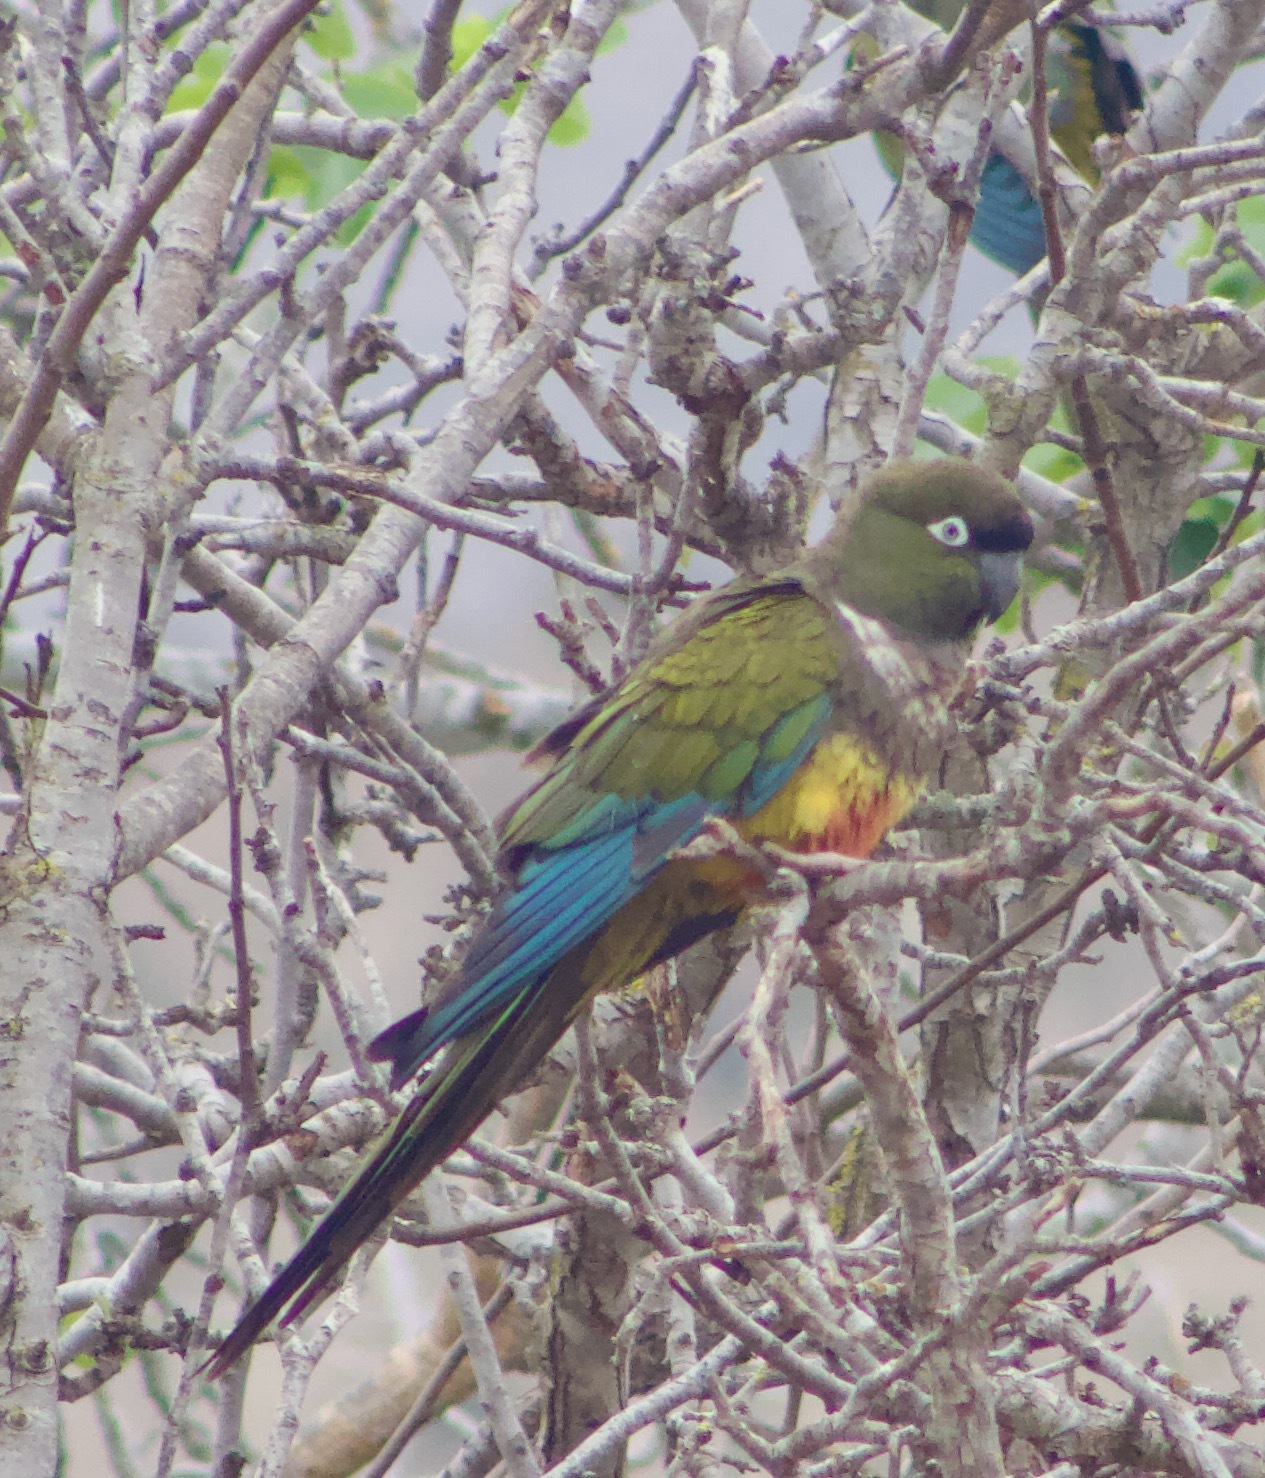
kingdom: Animalia
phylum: Chordata
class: Aves
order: Psittaciformes
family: Psittacidae
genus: Cyanoliseus
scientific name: Cyanoliseus patagonus
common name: Burrowing parrot
